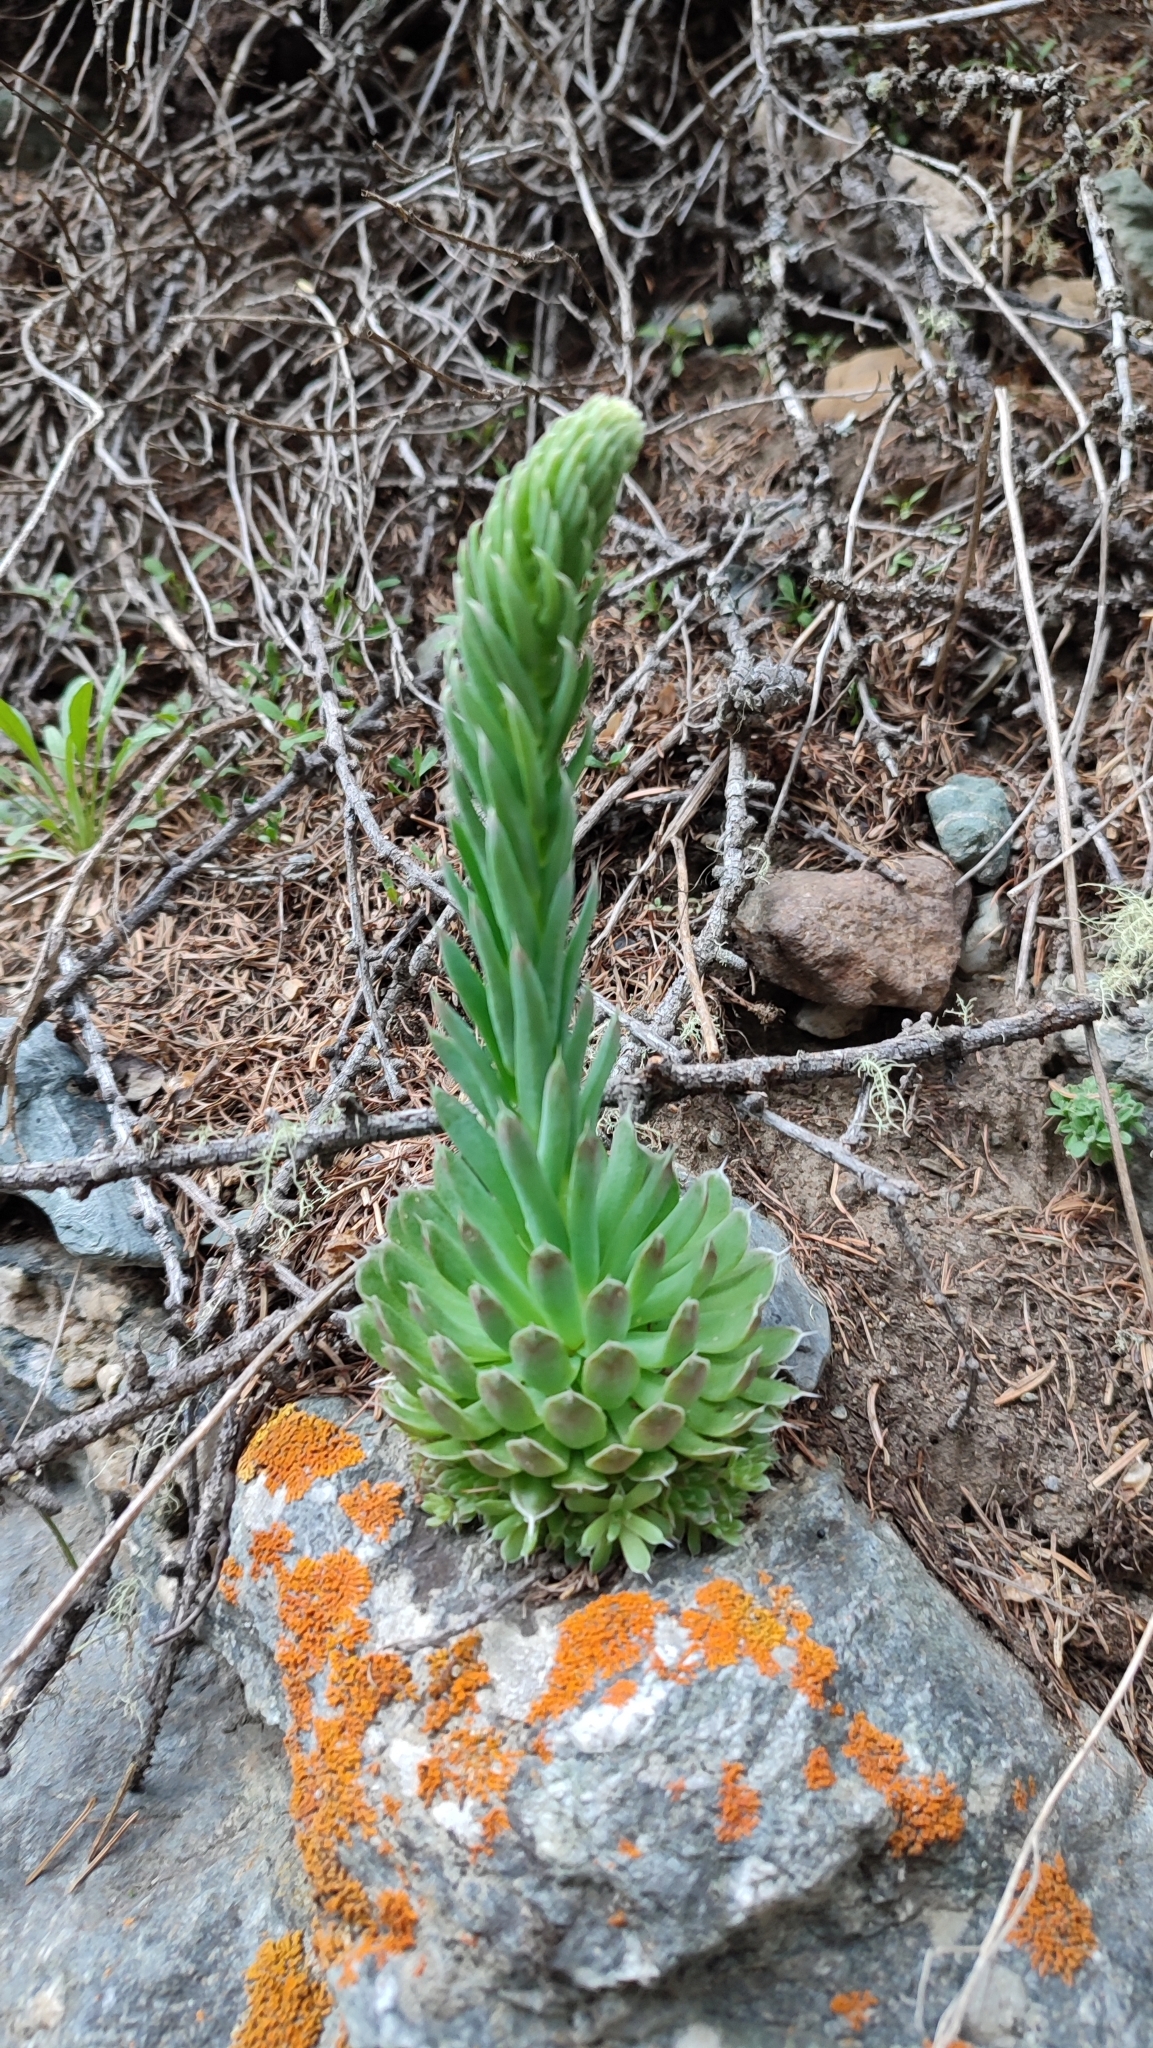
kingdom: Plantae
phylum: Tracheophyta
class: Magnoliopsida
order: Saxifragales
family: Crassulaceae
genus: Orostachys
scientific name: Orostachys spinosa
